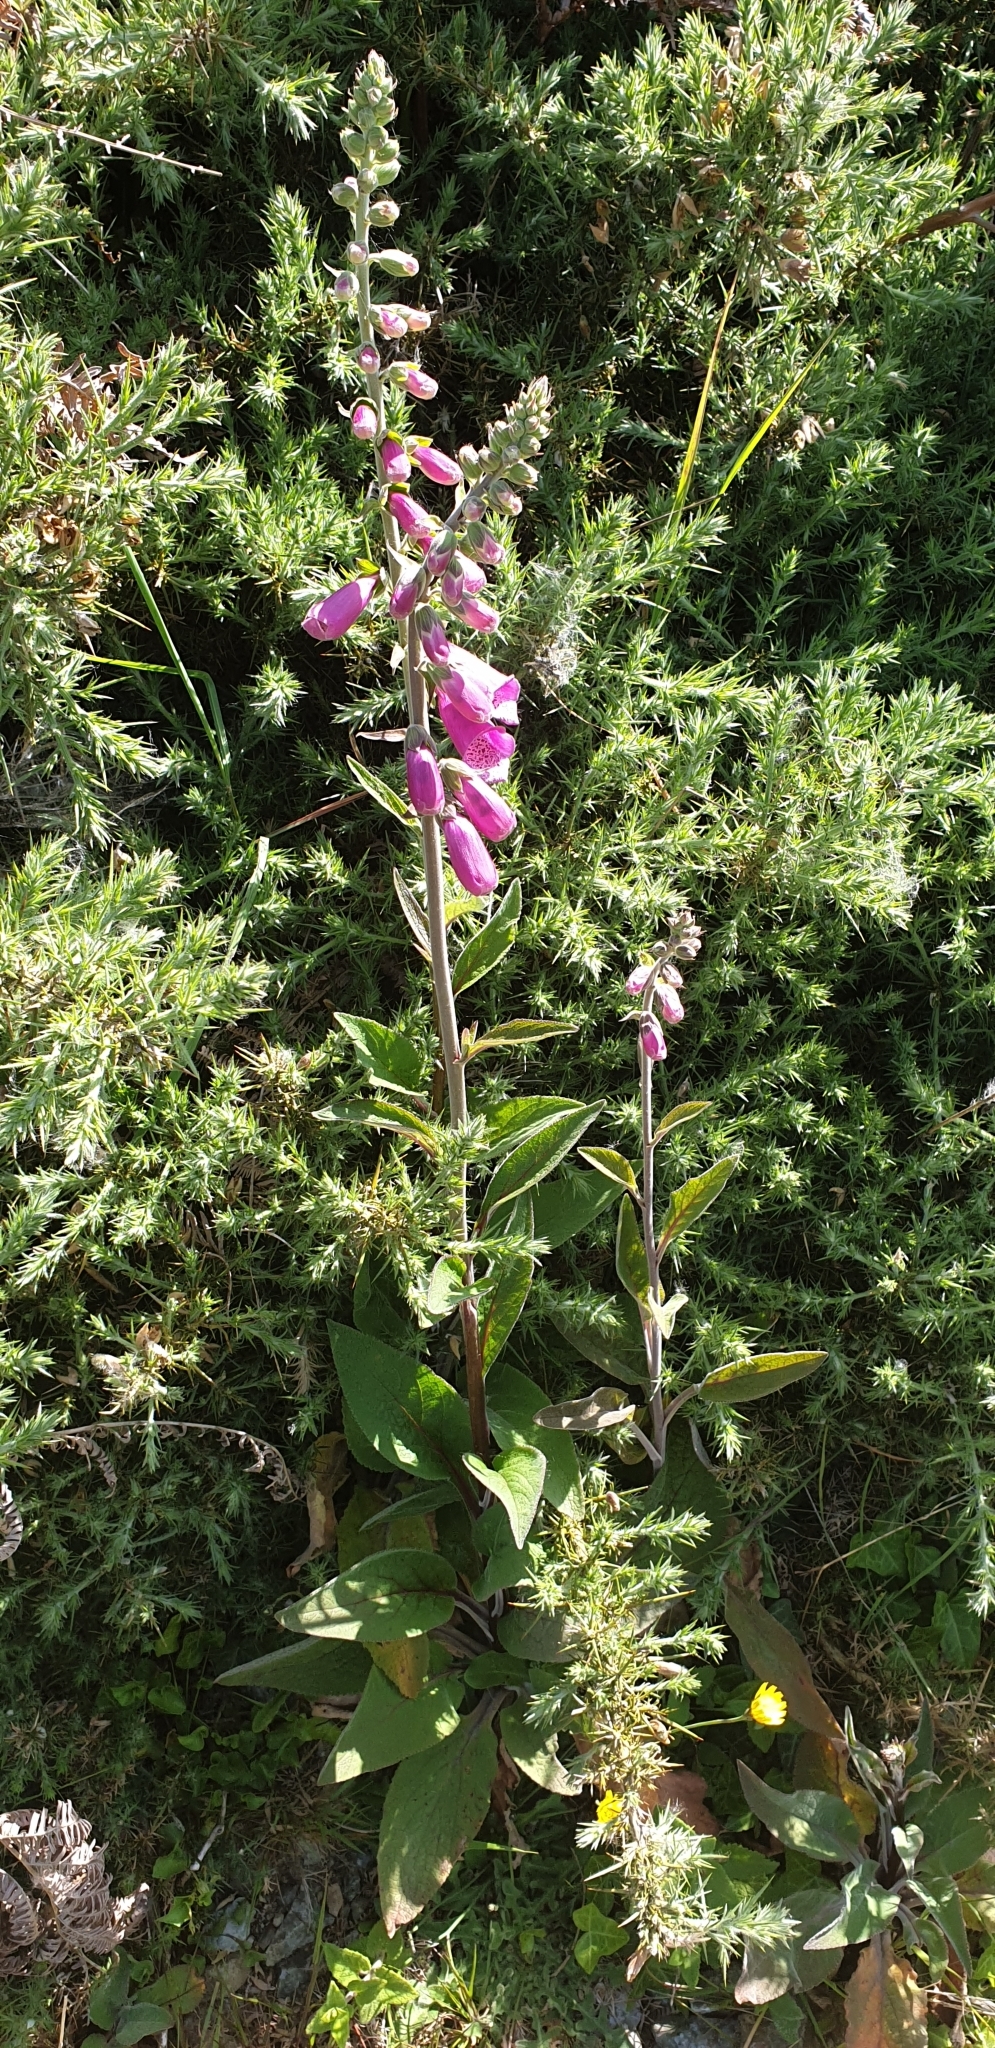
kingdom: Plantae
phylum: Tracheophyta
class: Magnoliopsida
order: Lamiales
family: Plantaginaceae
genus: Digitalis
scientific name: Digitalis purpurea
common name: Foxglove
